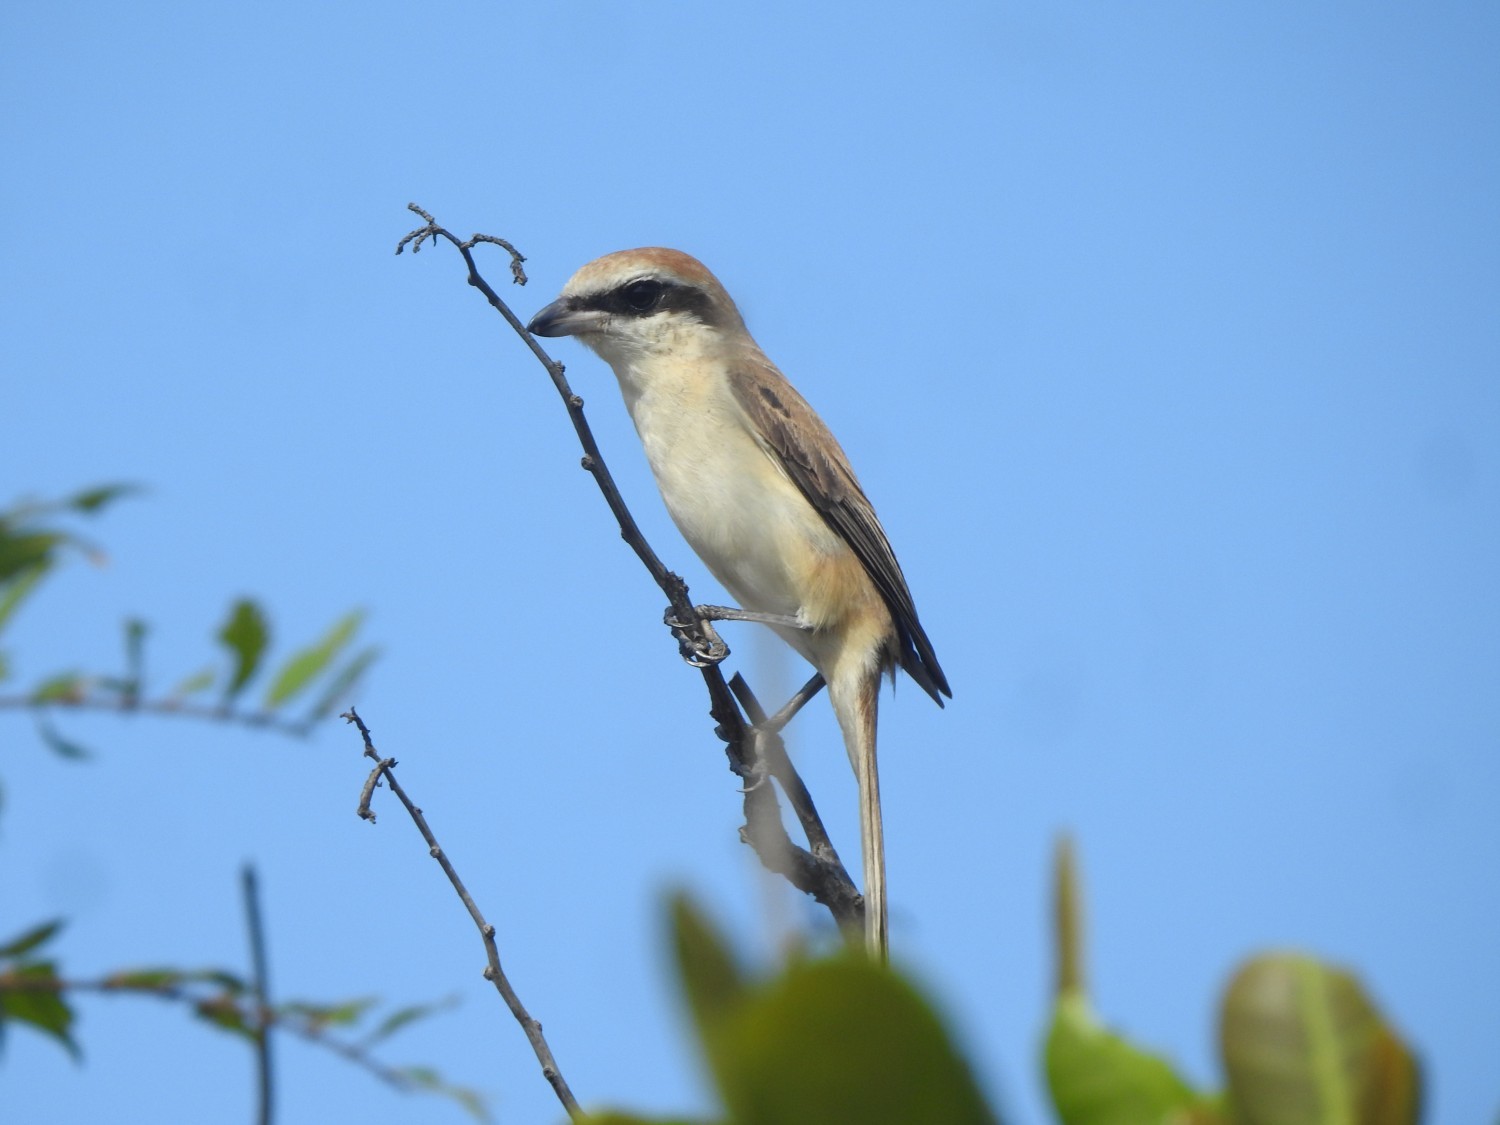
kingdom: Animalia
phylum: Chordata
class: Aves
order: Passeriformes
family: Laniidae
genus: Lanius
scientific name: Lanius cristatus
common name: Brown shrike
